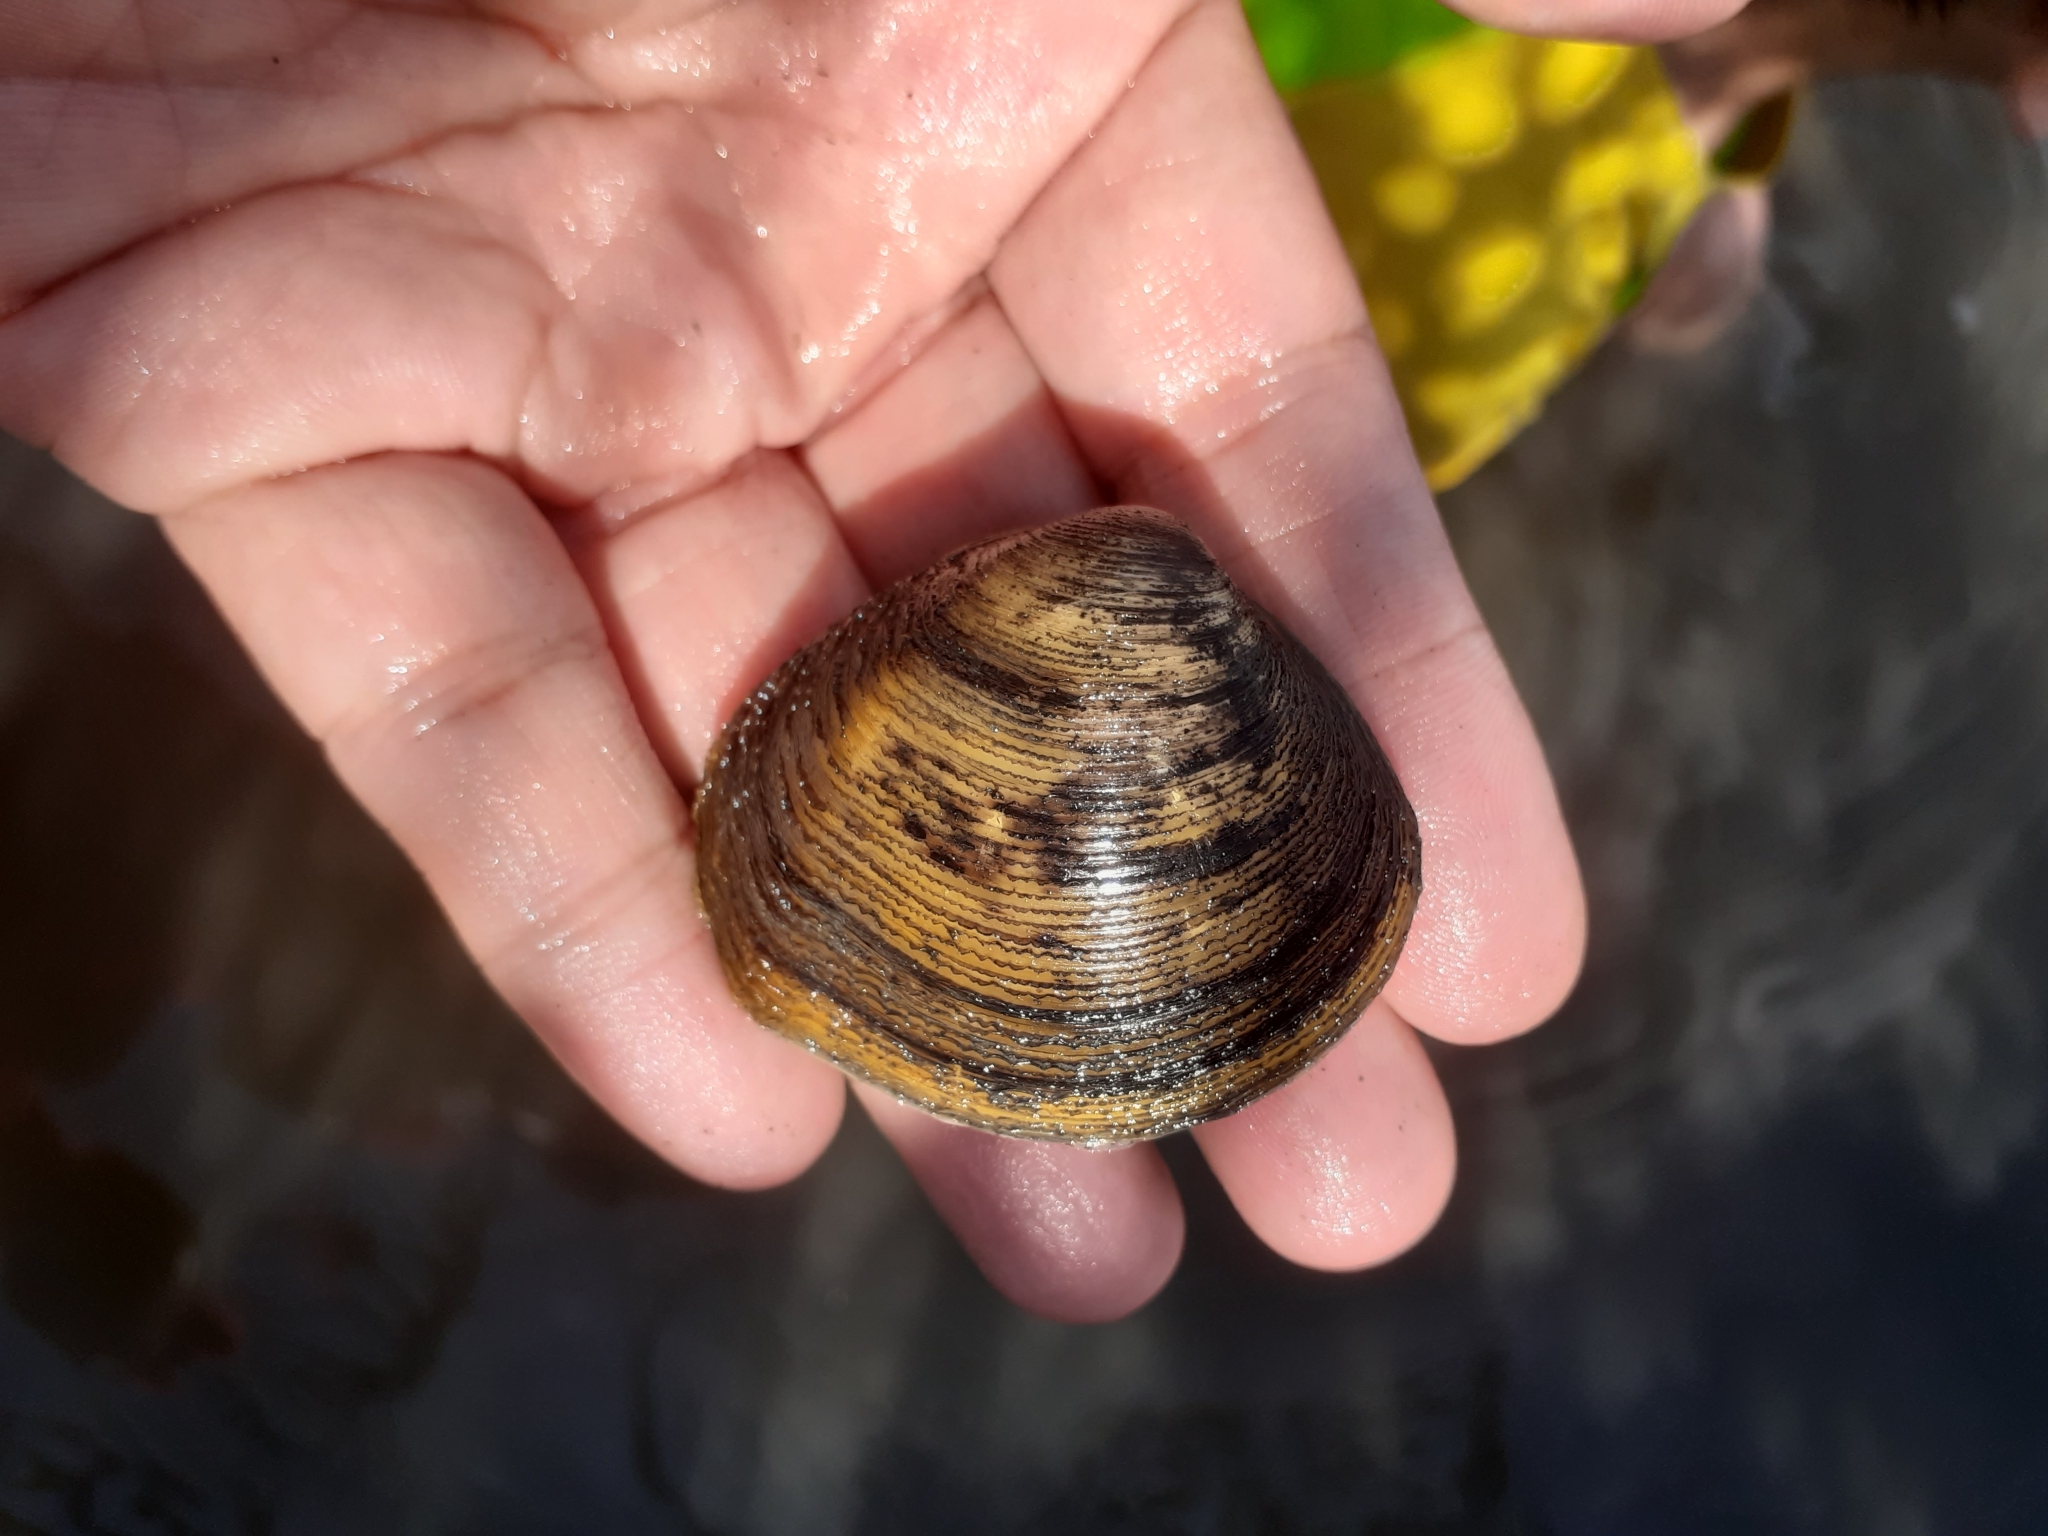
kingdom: Animalia
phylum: Mollusca
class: Bivalvia
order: Venerida
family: Cyrenidae
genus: Geloina
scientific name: Geloina expansa
